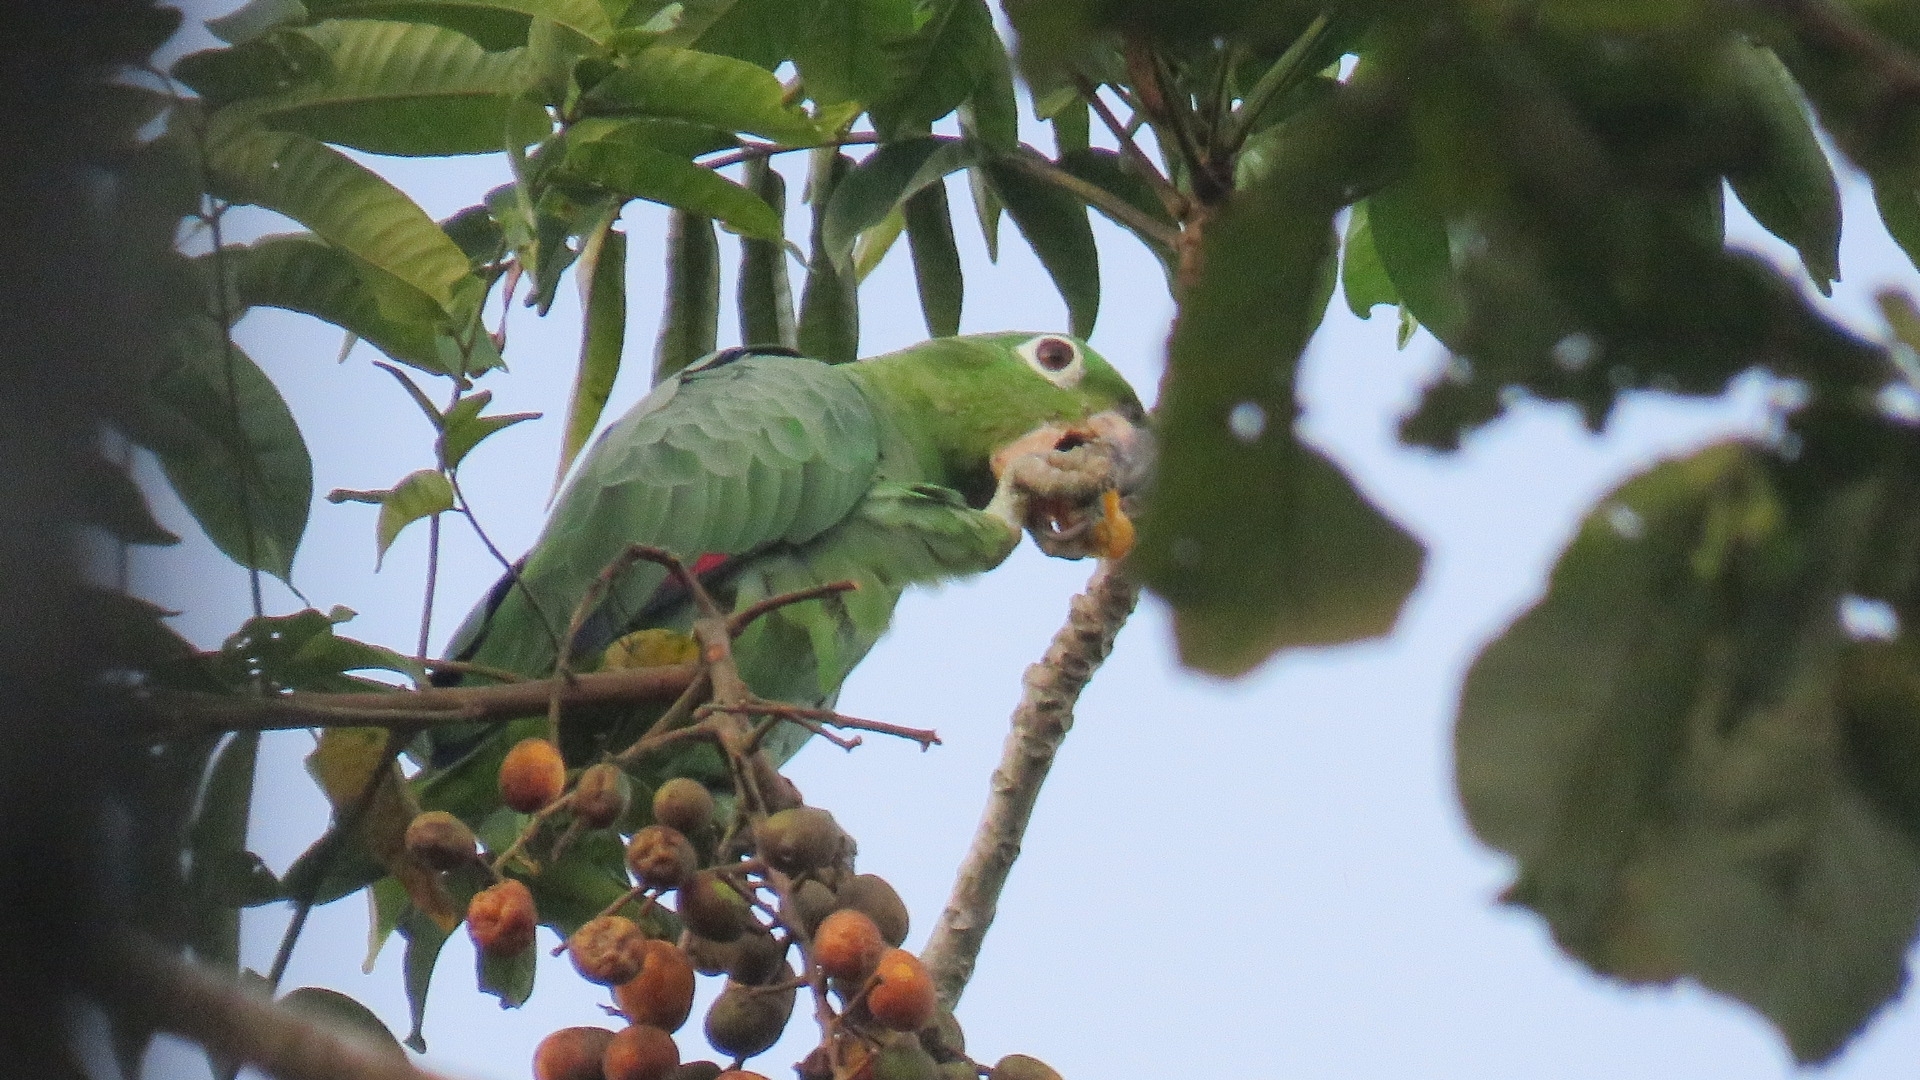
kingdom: Animalia
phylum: Chordata
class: Aves
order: Psittaciformes
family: Psittacidae
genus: Amazona
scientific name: Amazona farinosa
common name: Mealy parrot
